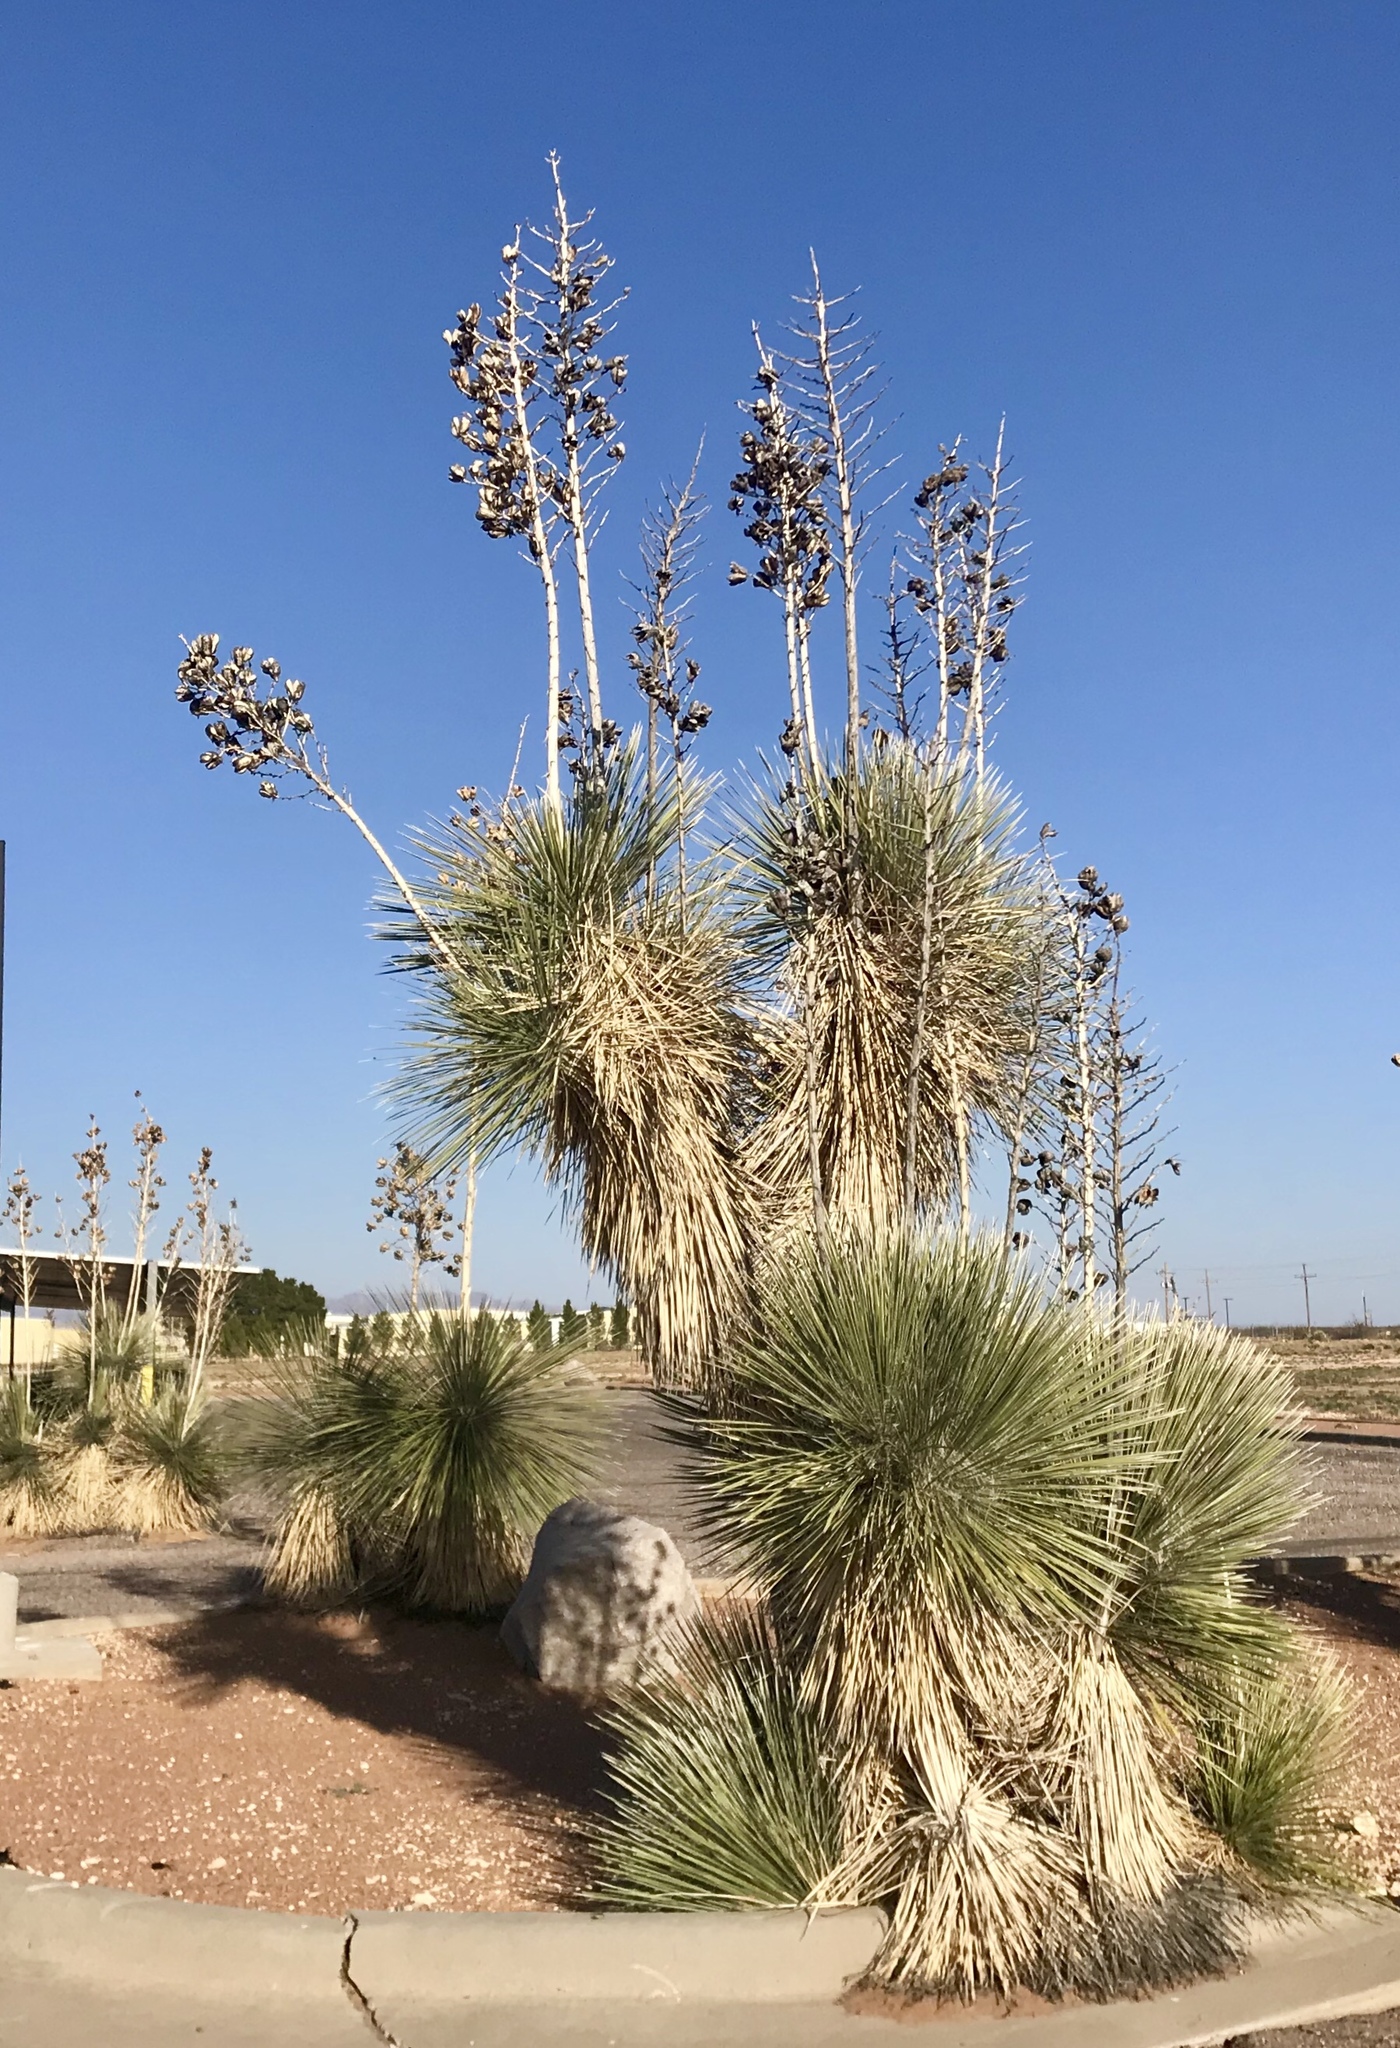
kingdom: Plantae
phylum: Tracheophyta
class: Liliopsida
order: Asparagales
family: Asparagaceae
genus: Yucca
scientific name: Yucca elata
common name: Palmella
